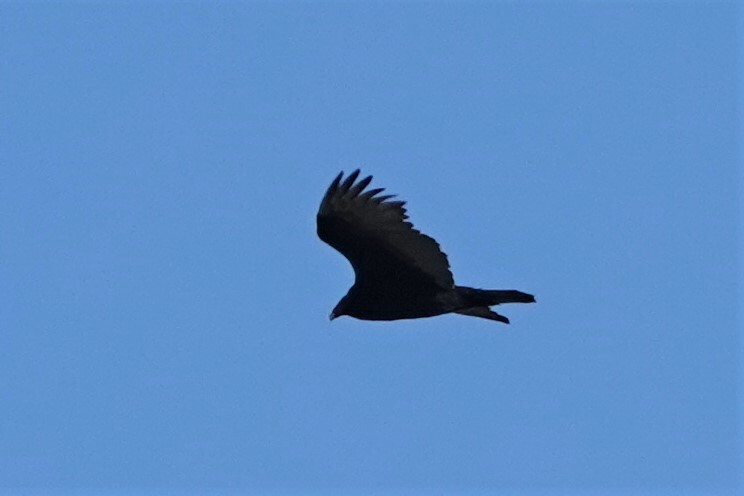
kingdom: Animalia
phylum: Chordata
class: Aves
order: Accipitriformes
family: Cathartidae
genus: Cathartes
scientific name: Cathartes aura
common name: Turkey vulture
